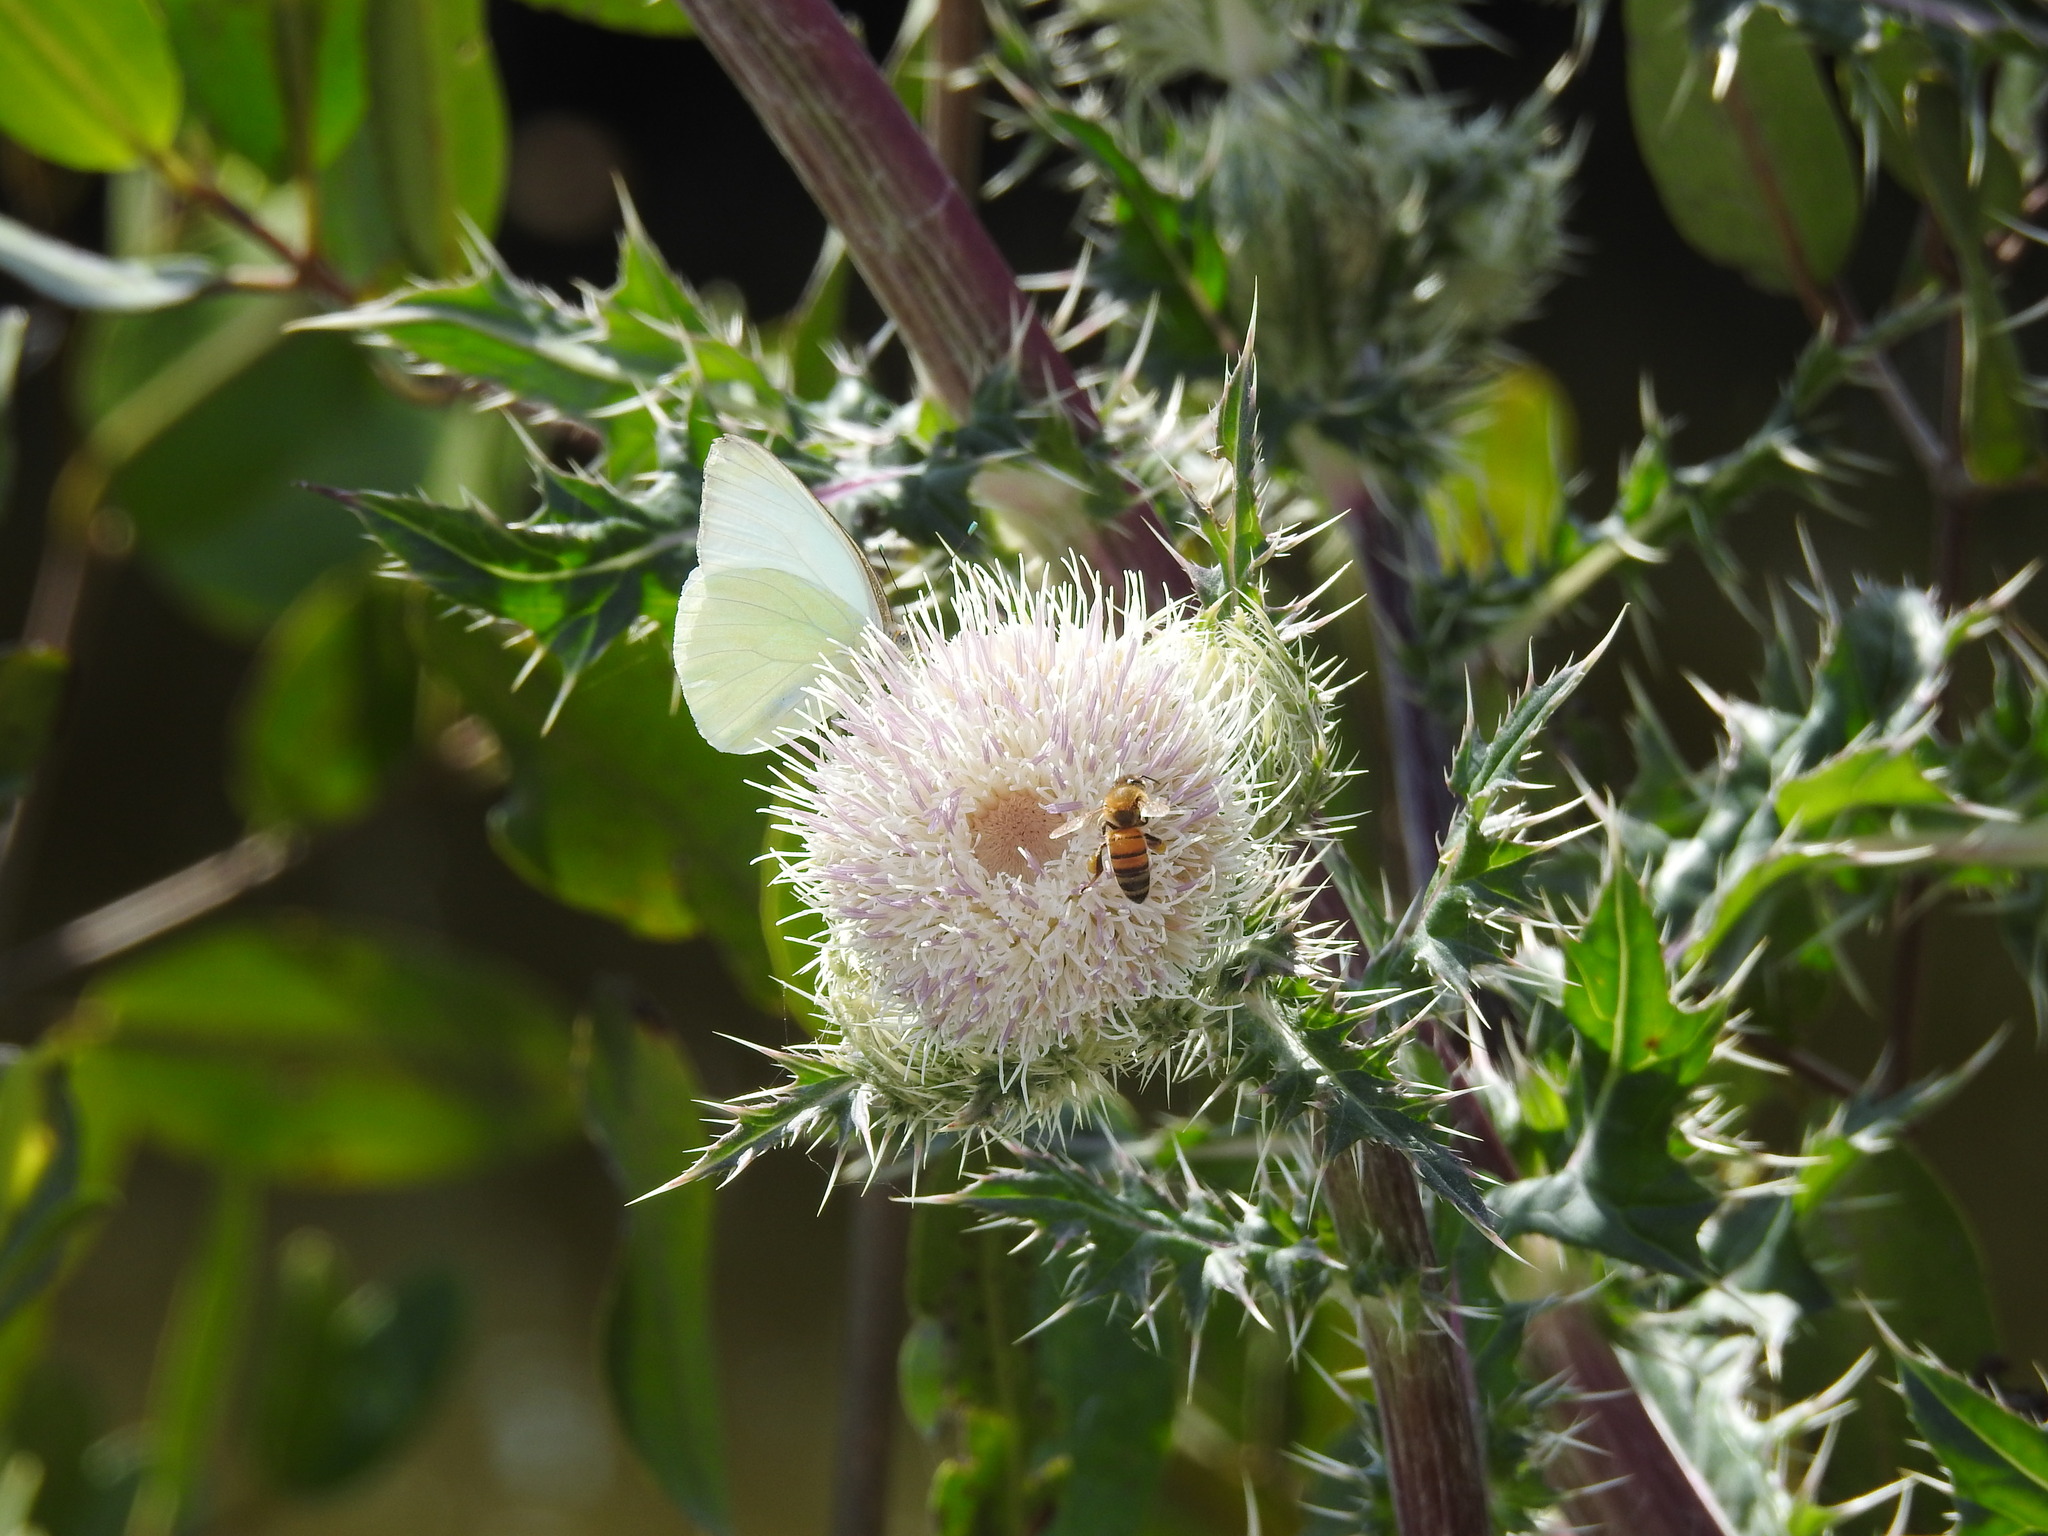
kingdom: Animalia
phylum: Arthropoda
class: Insecta
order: Lepidoptera
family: Pieridae
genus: Ascia
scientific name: Ascia monuste
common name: Great southern white
